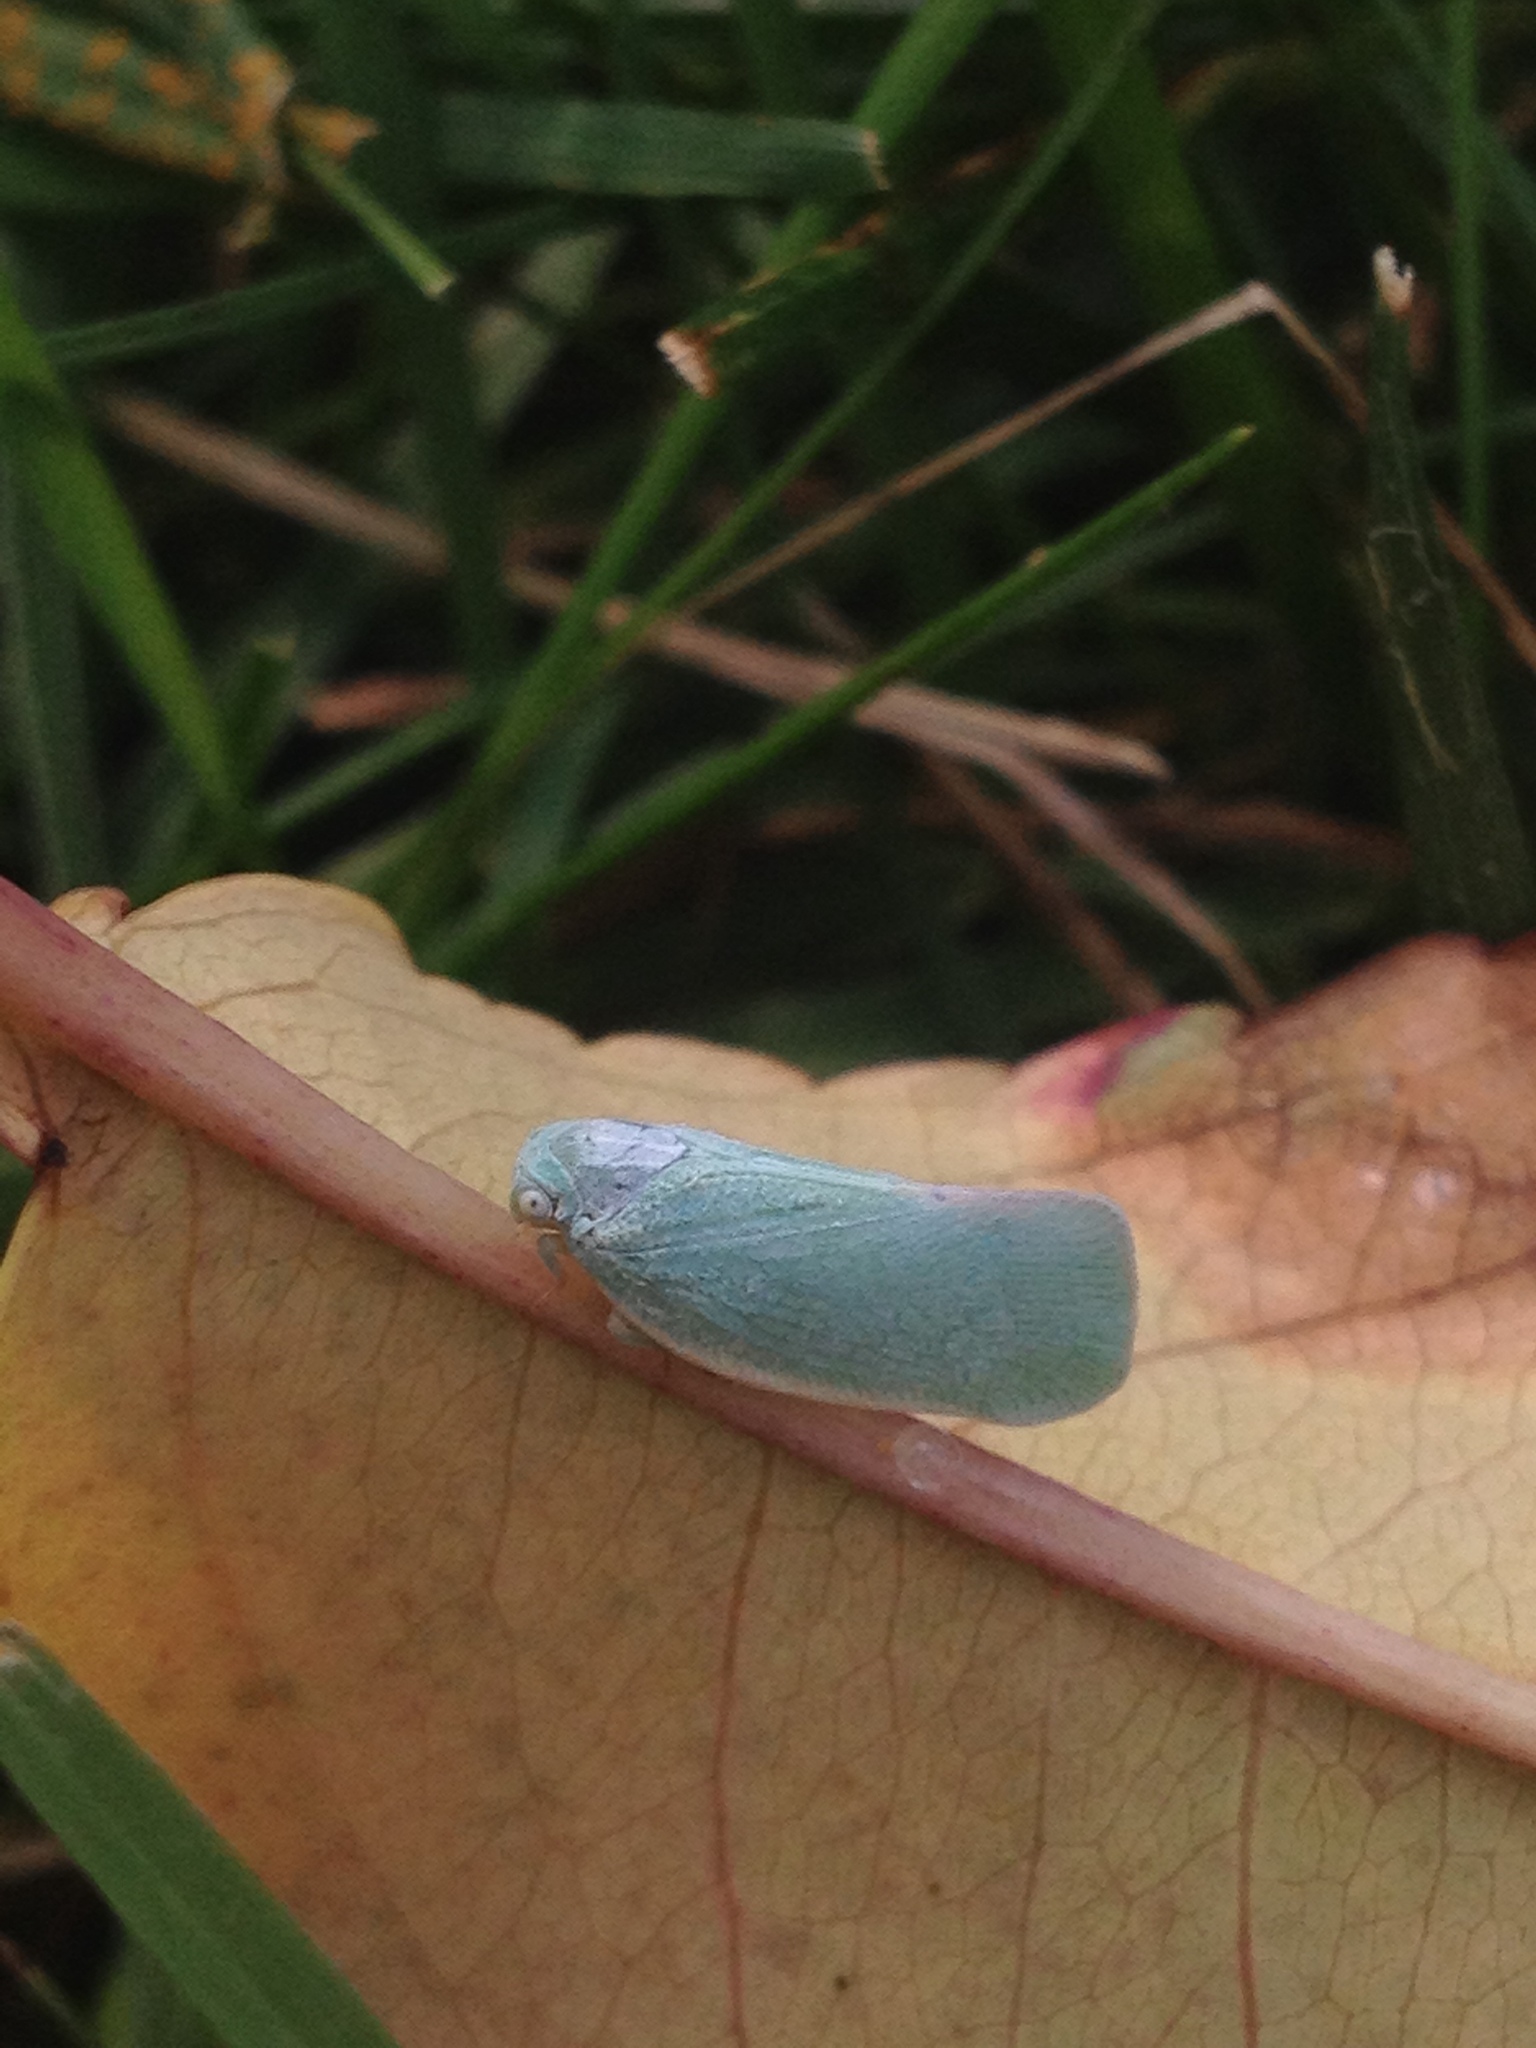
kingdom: Animalia
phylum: Arthropoda
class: Insecta
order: Hemiptera
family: Flatidae
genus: Flatormenis
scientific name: Flatormenis proxima
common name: Northern flatid planthopper
